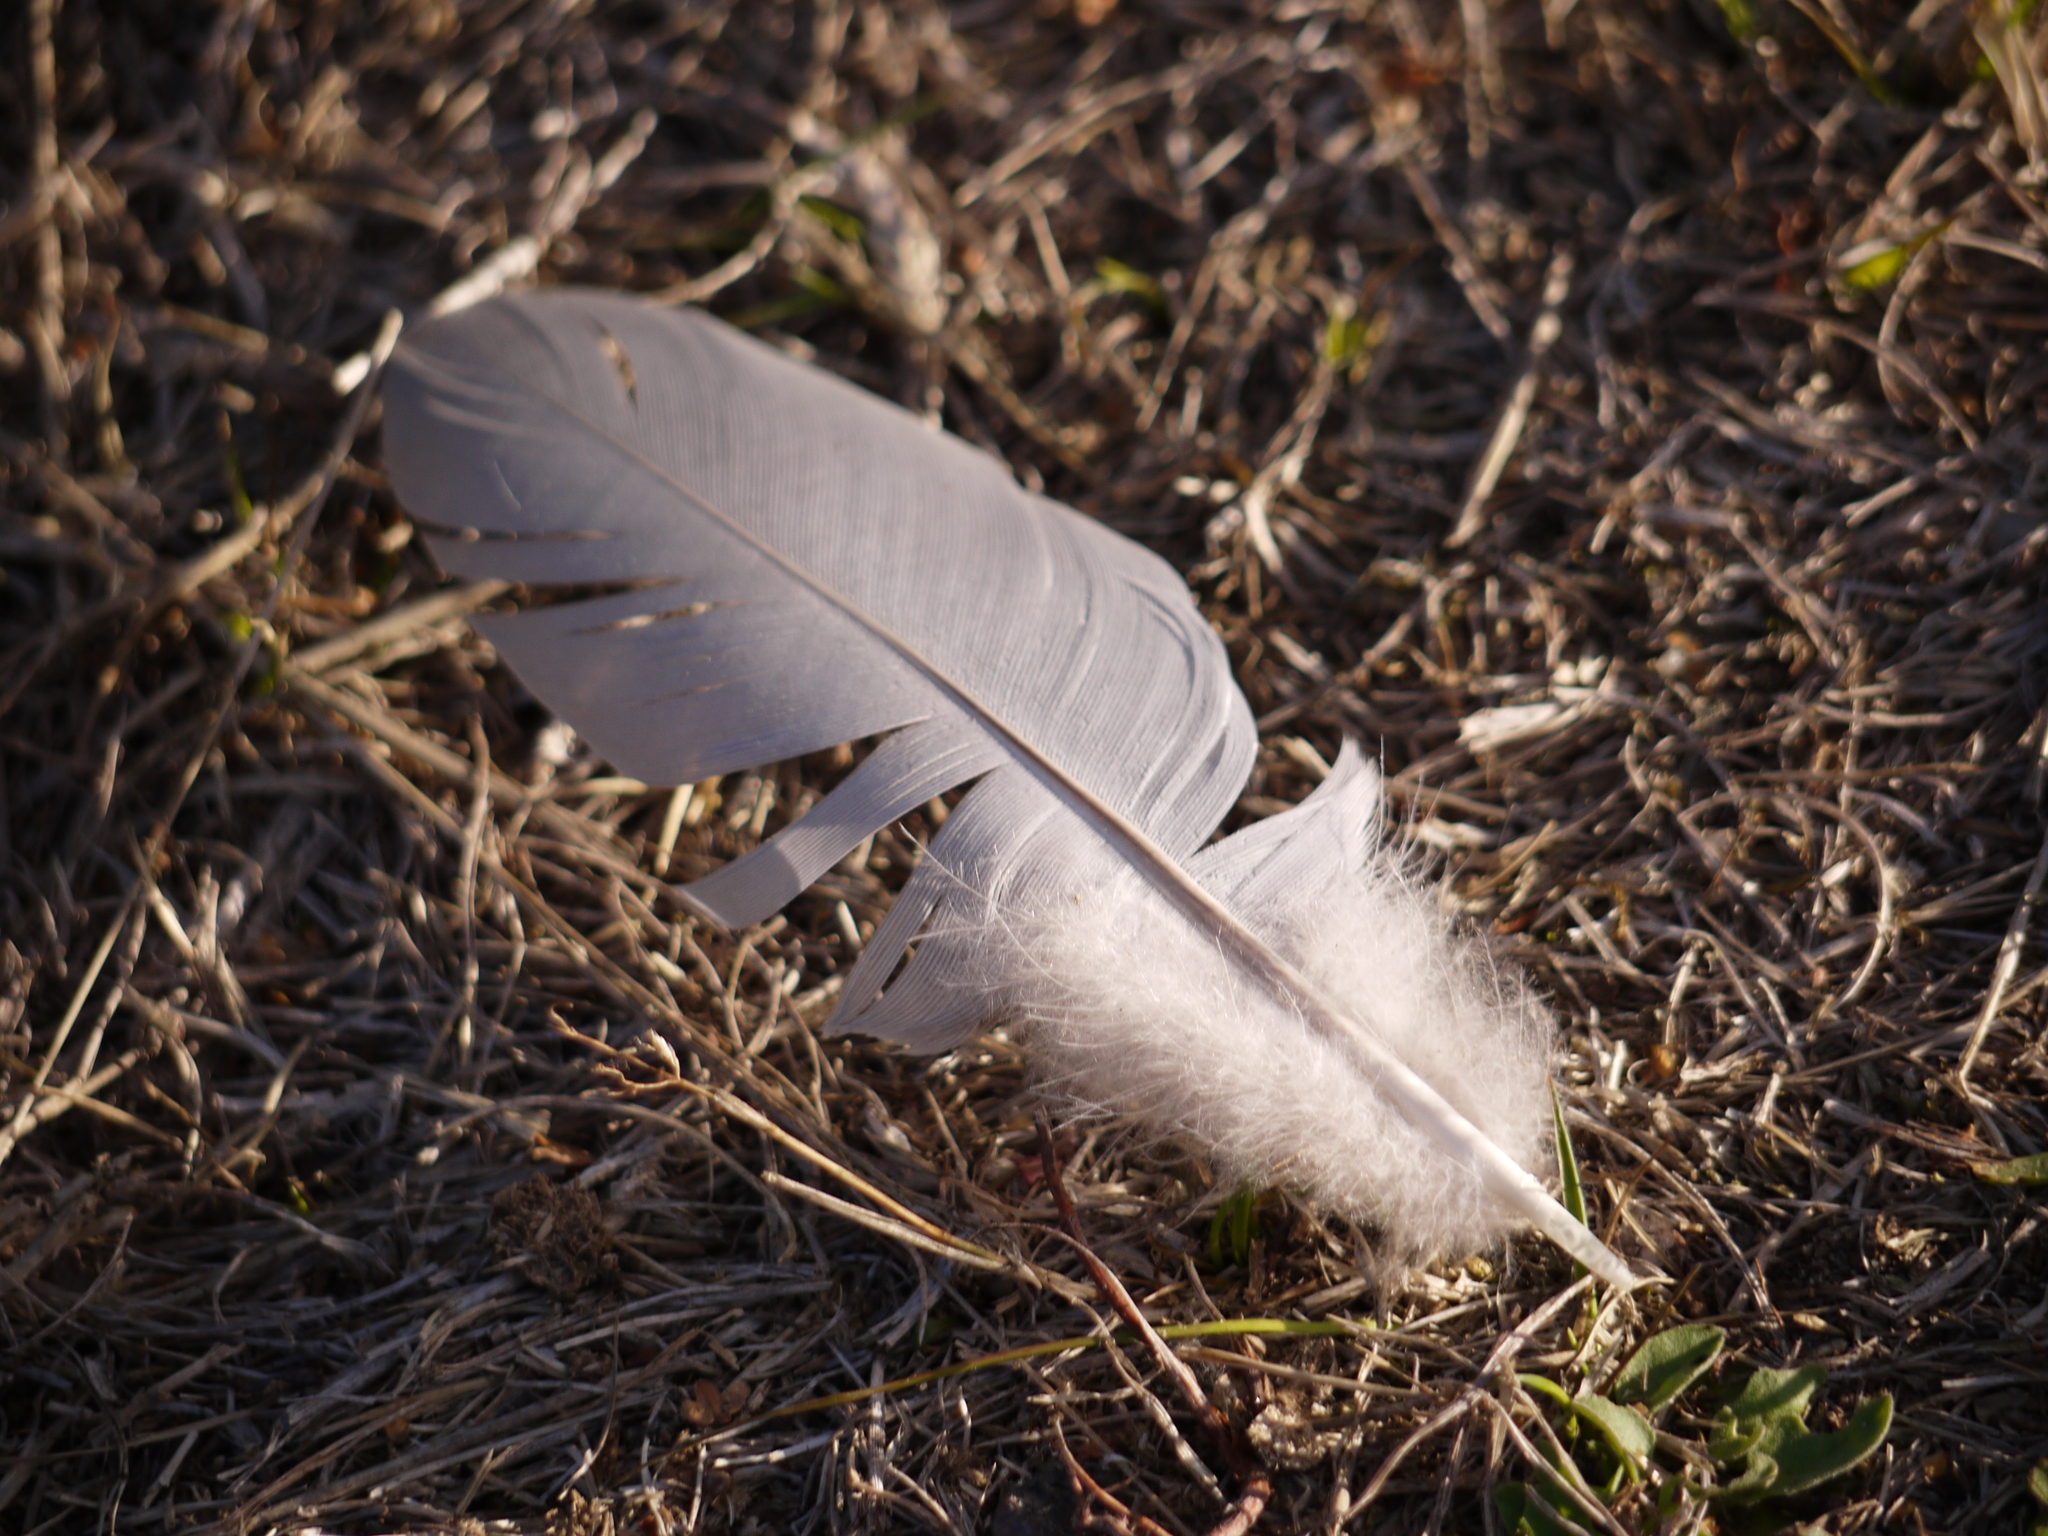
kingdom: Animalia
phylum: Chordata
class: Aves
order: Columbiformes
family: Columbidae
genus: Columba
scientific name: Columba palumbus
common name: Common wood pigeon
